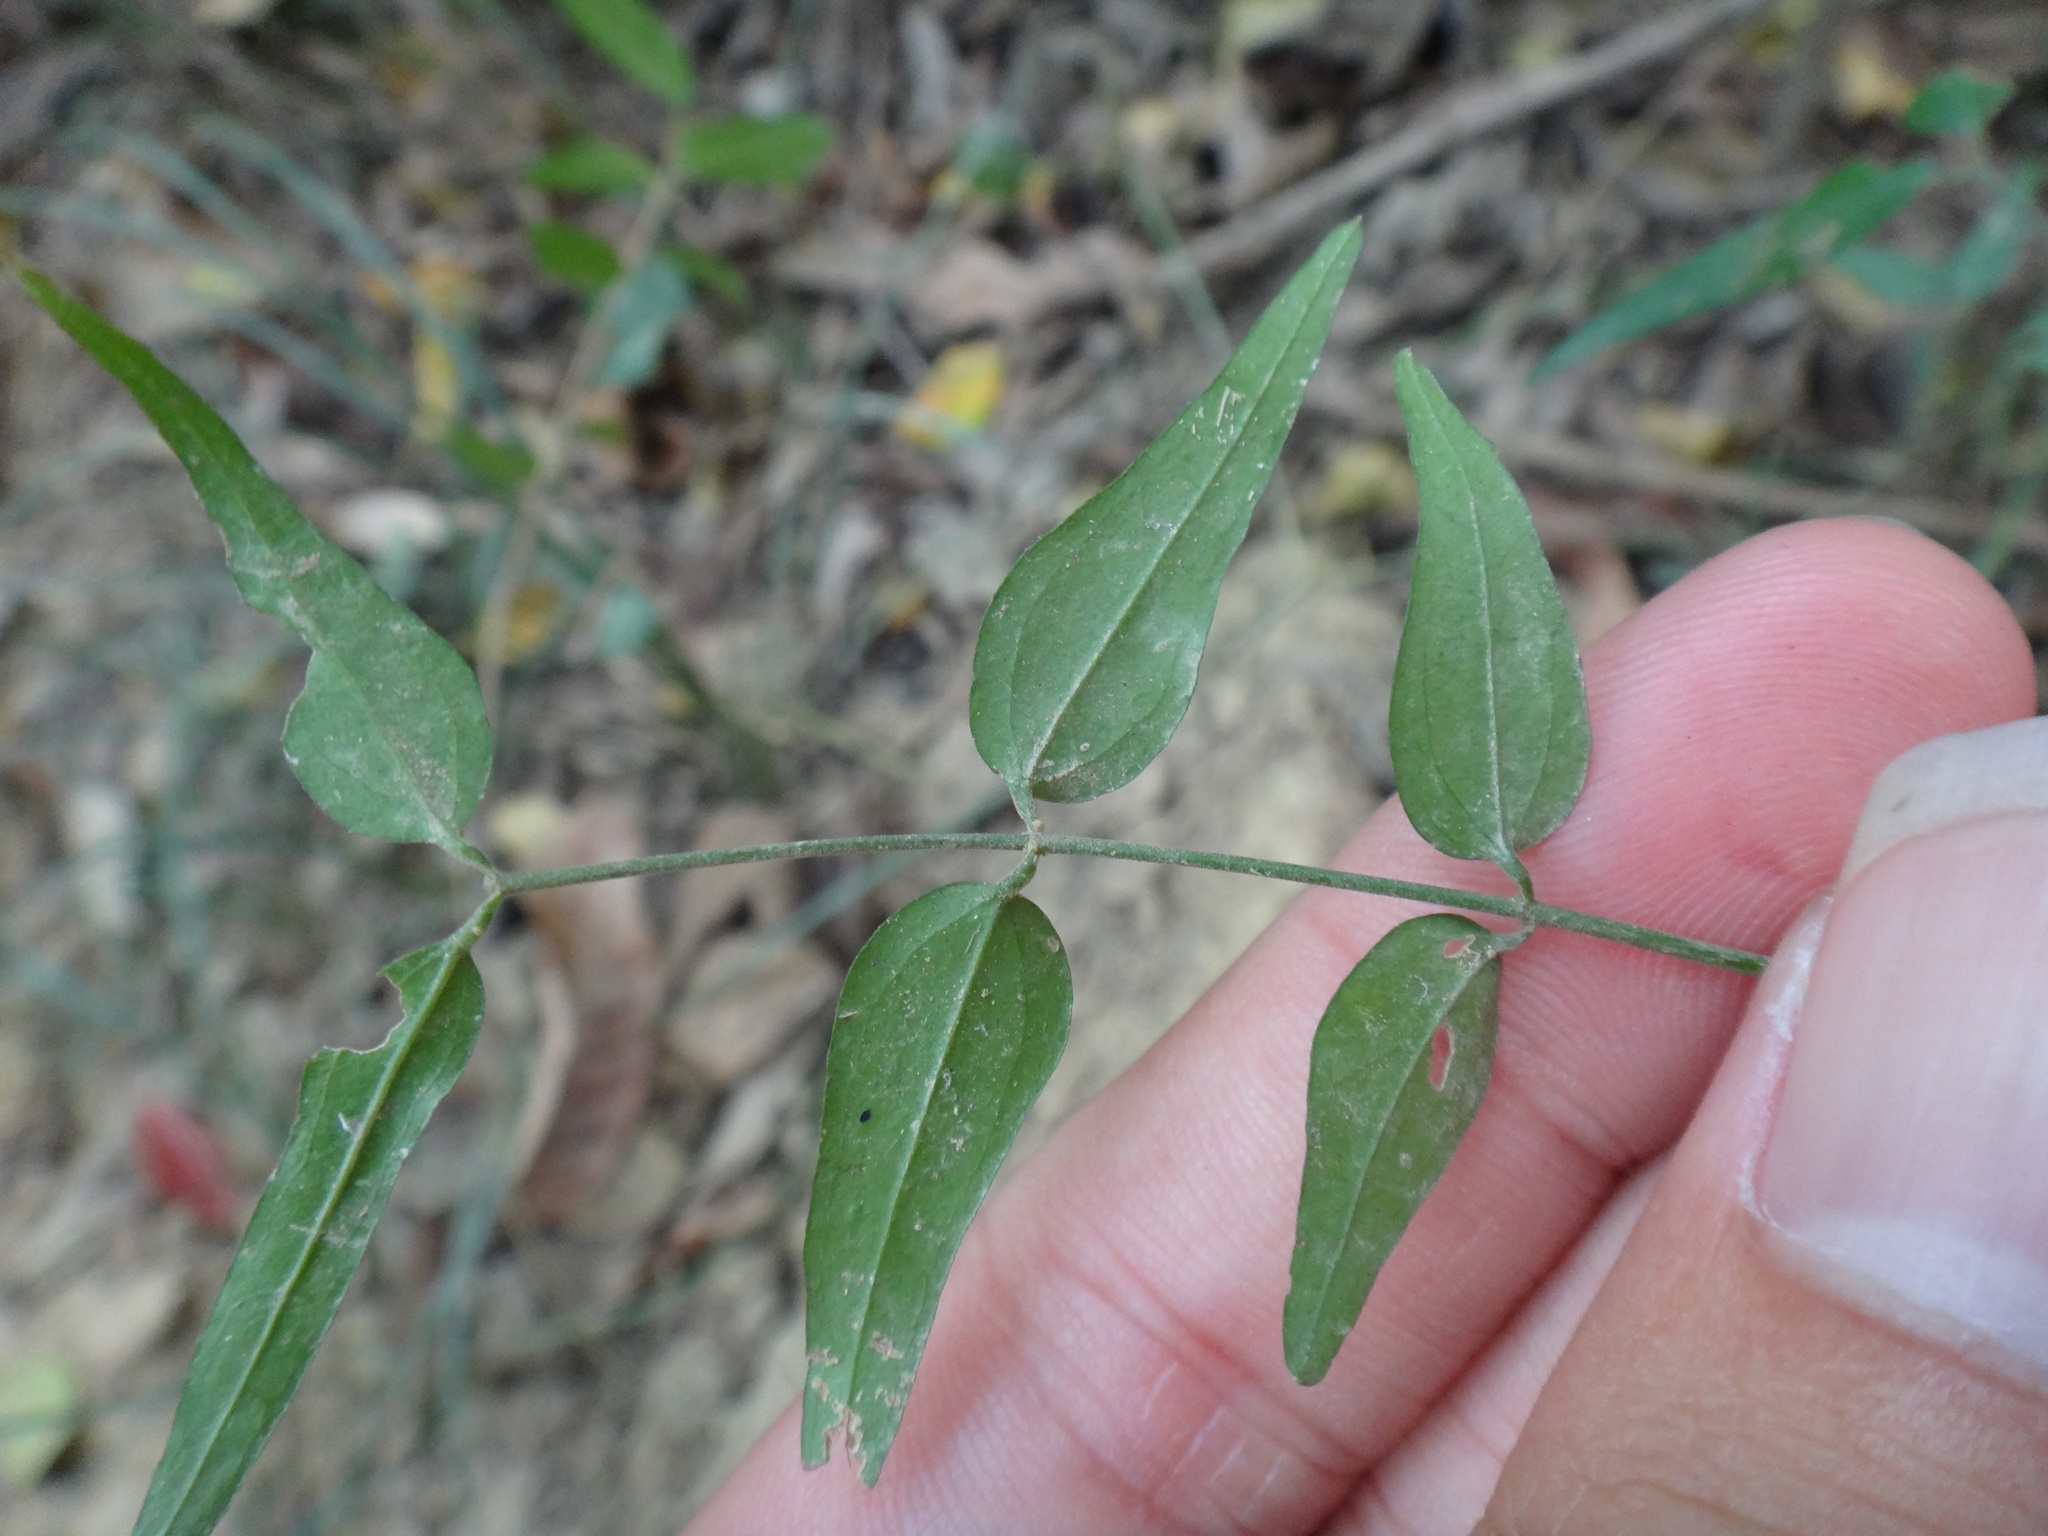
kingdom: Plantae
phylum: Tracheophyta
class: Magnoliopsida
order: Lamiales
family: Oleaceae
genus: Jasminum
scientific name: Jasminum nervosum
